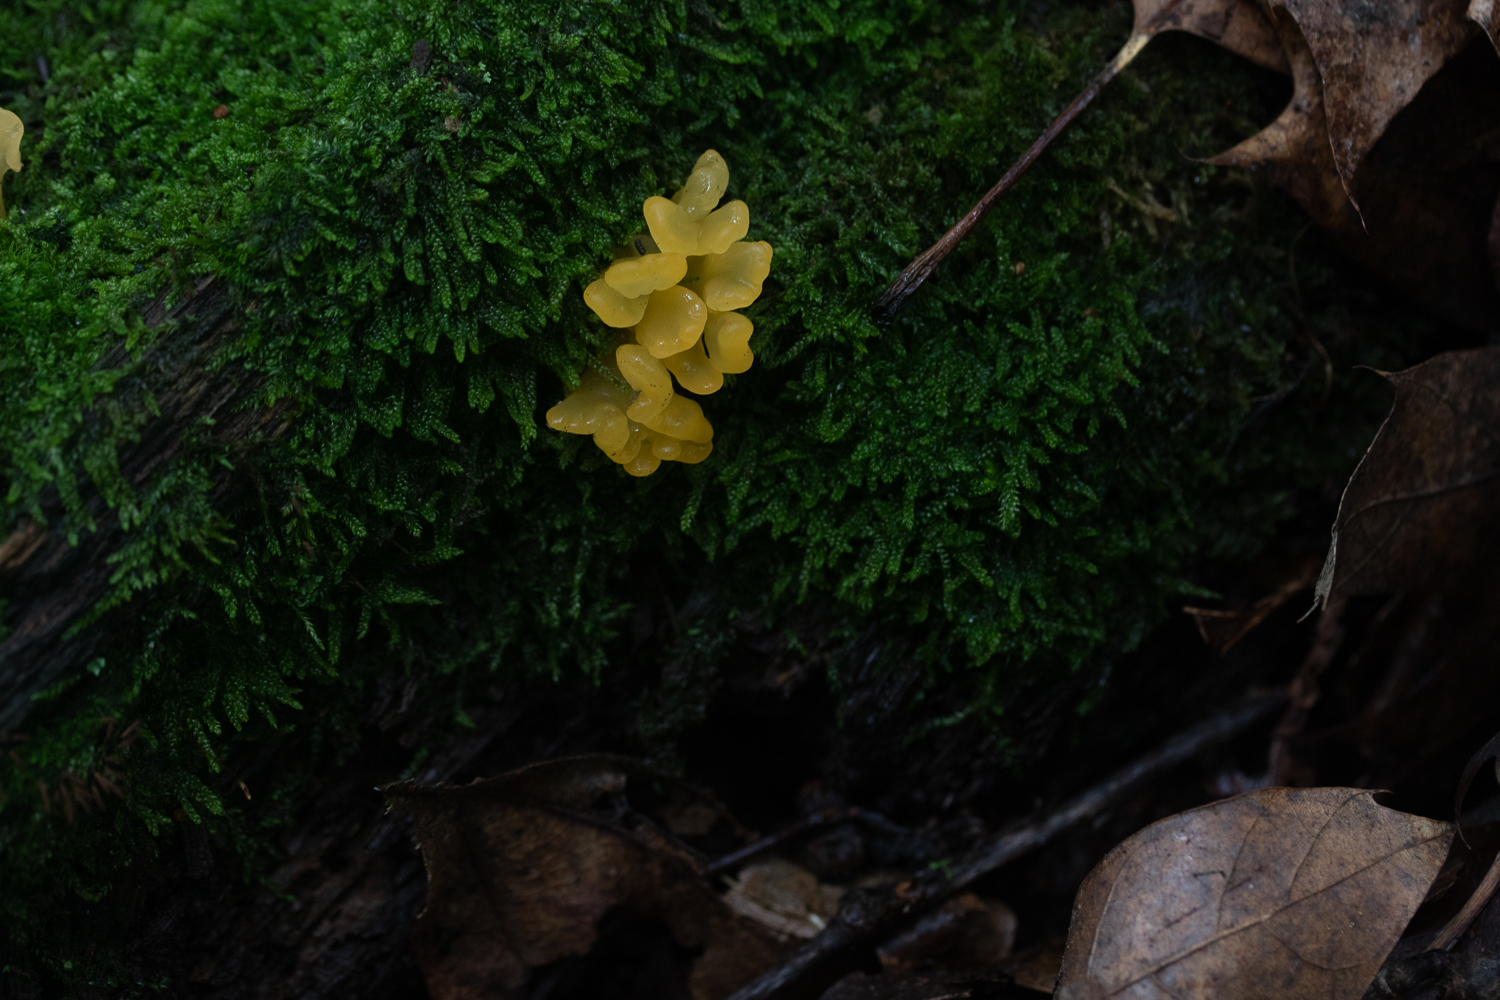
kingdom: Fungi
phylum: Basidiomycota
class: Dacrymycetes
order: Dacrymycetales
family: Dacrymycetaceae
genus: Dacrymyces
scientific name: Dacrymyces spathularius
